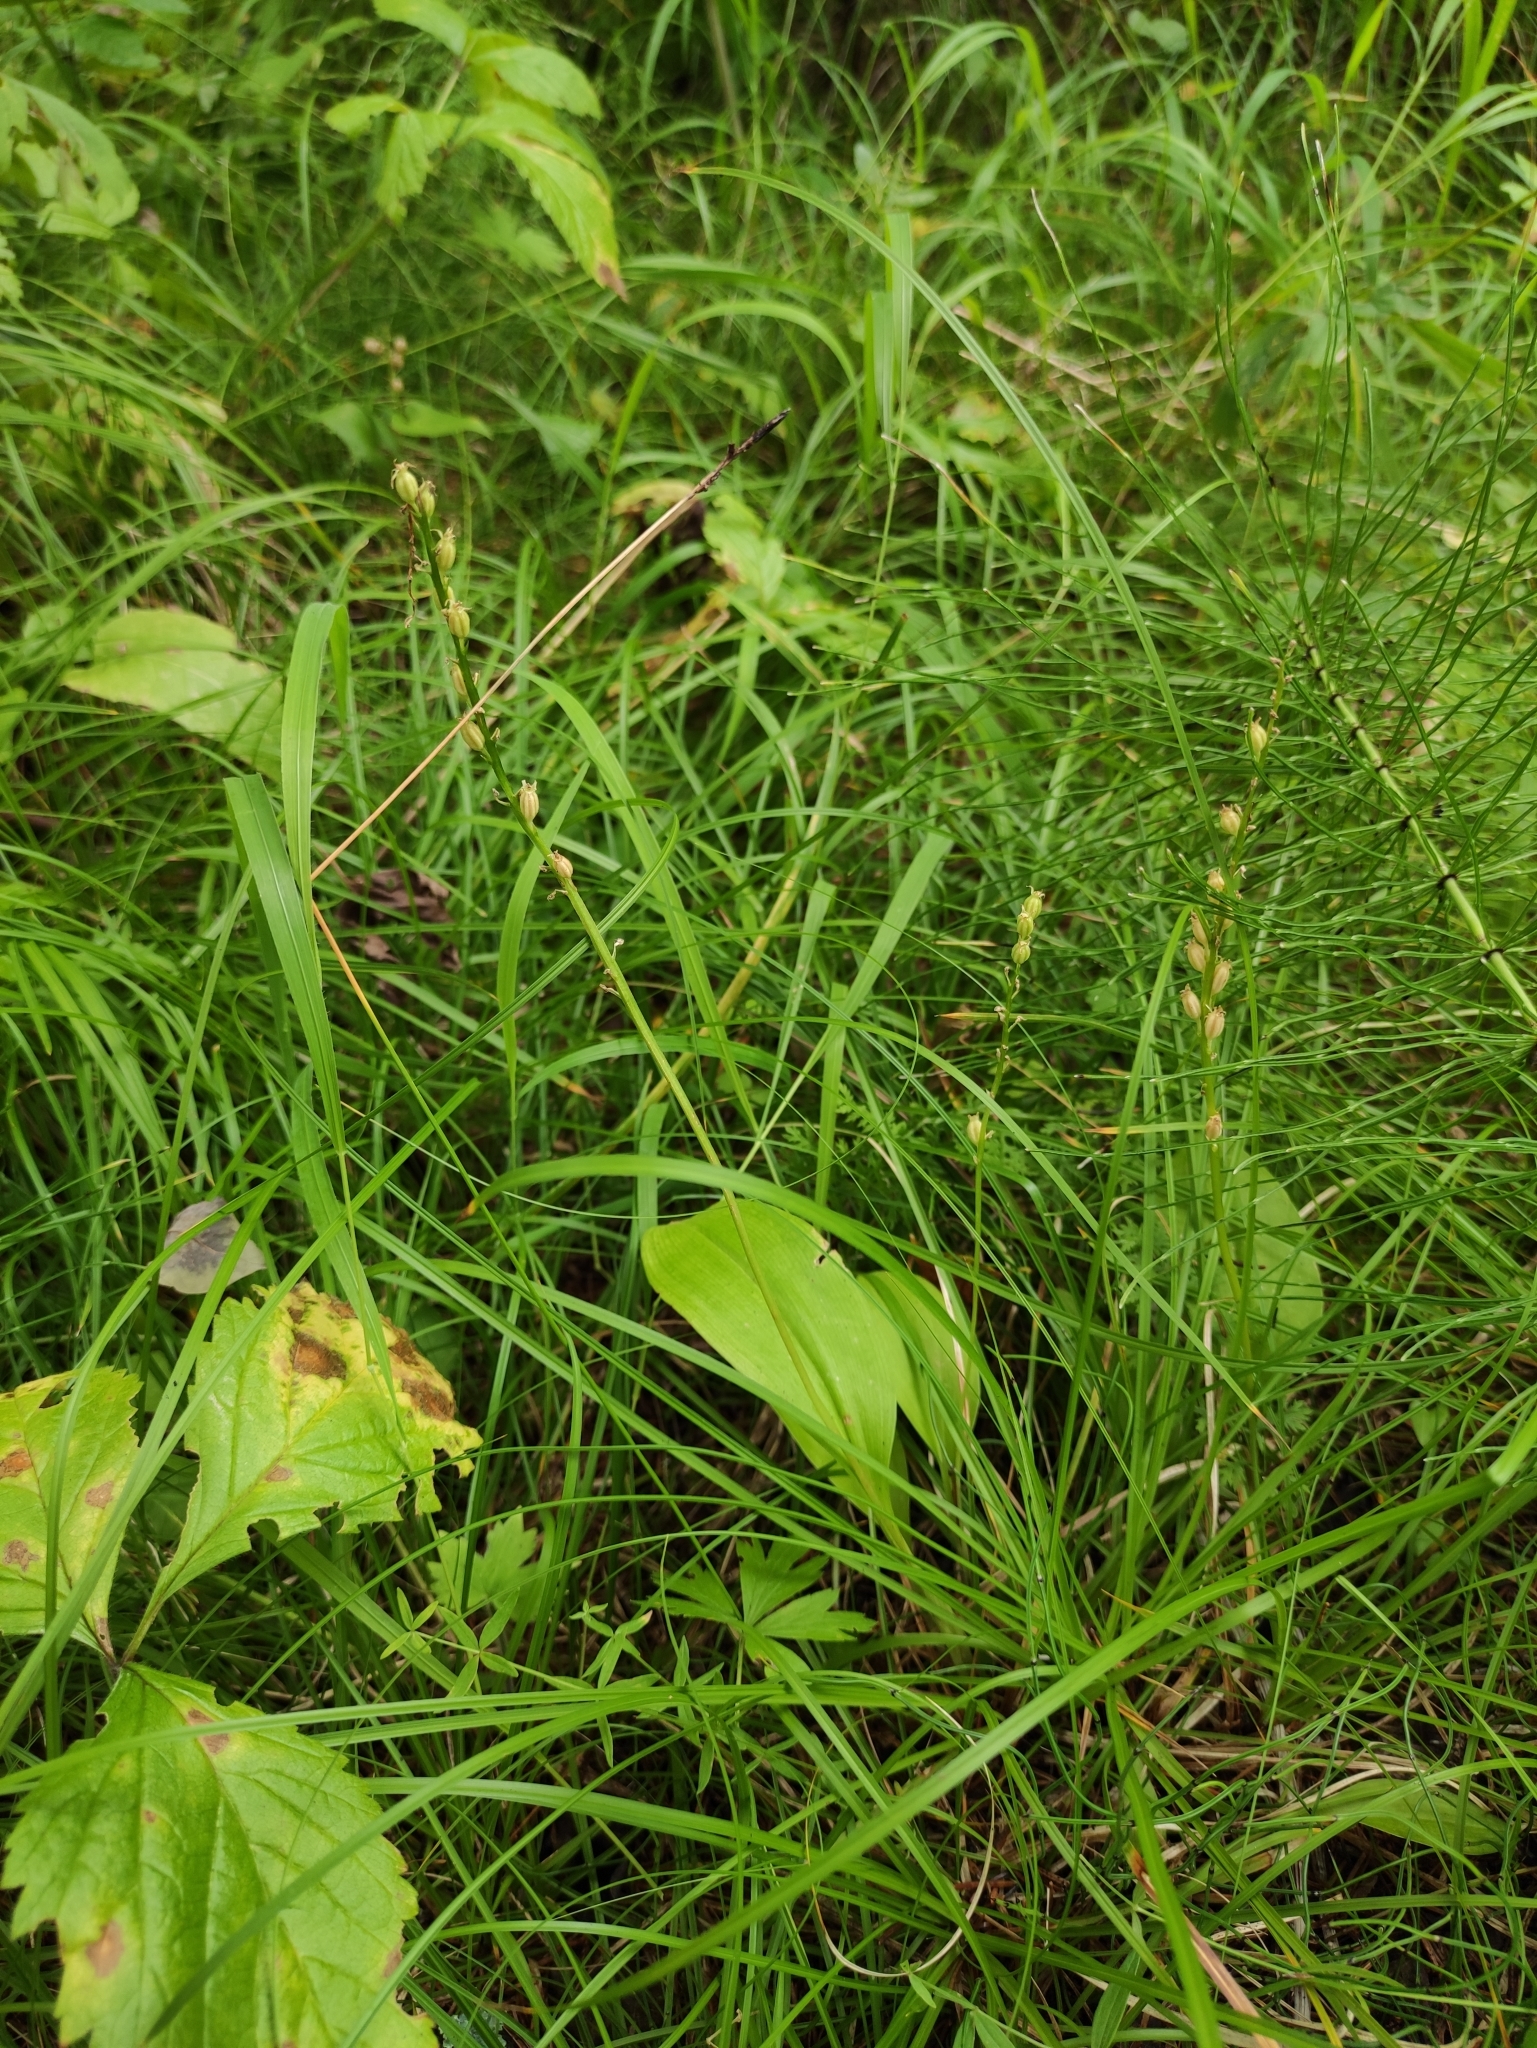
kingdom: Plantae
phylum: Tracheophyta
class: Liliopsida
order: Asparagales
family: Orchidaceae
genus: Malaxis
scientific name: Malaxis monophyllos
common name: White adder's-mouth
